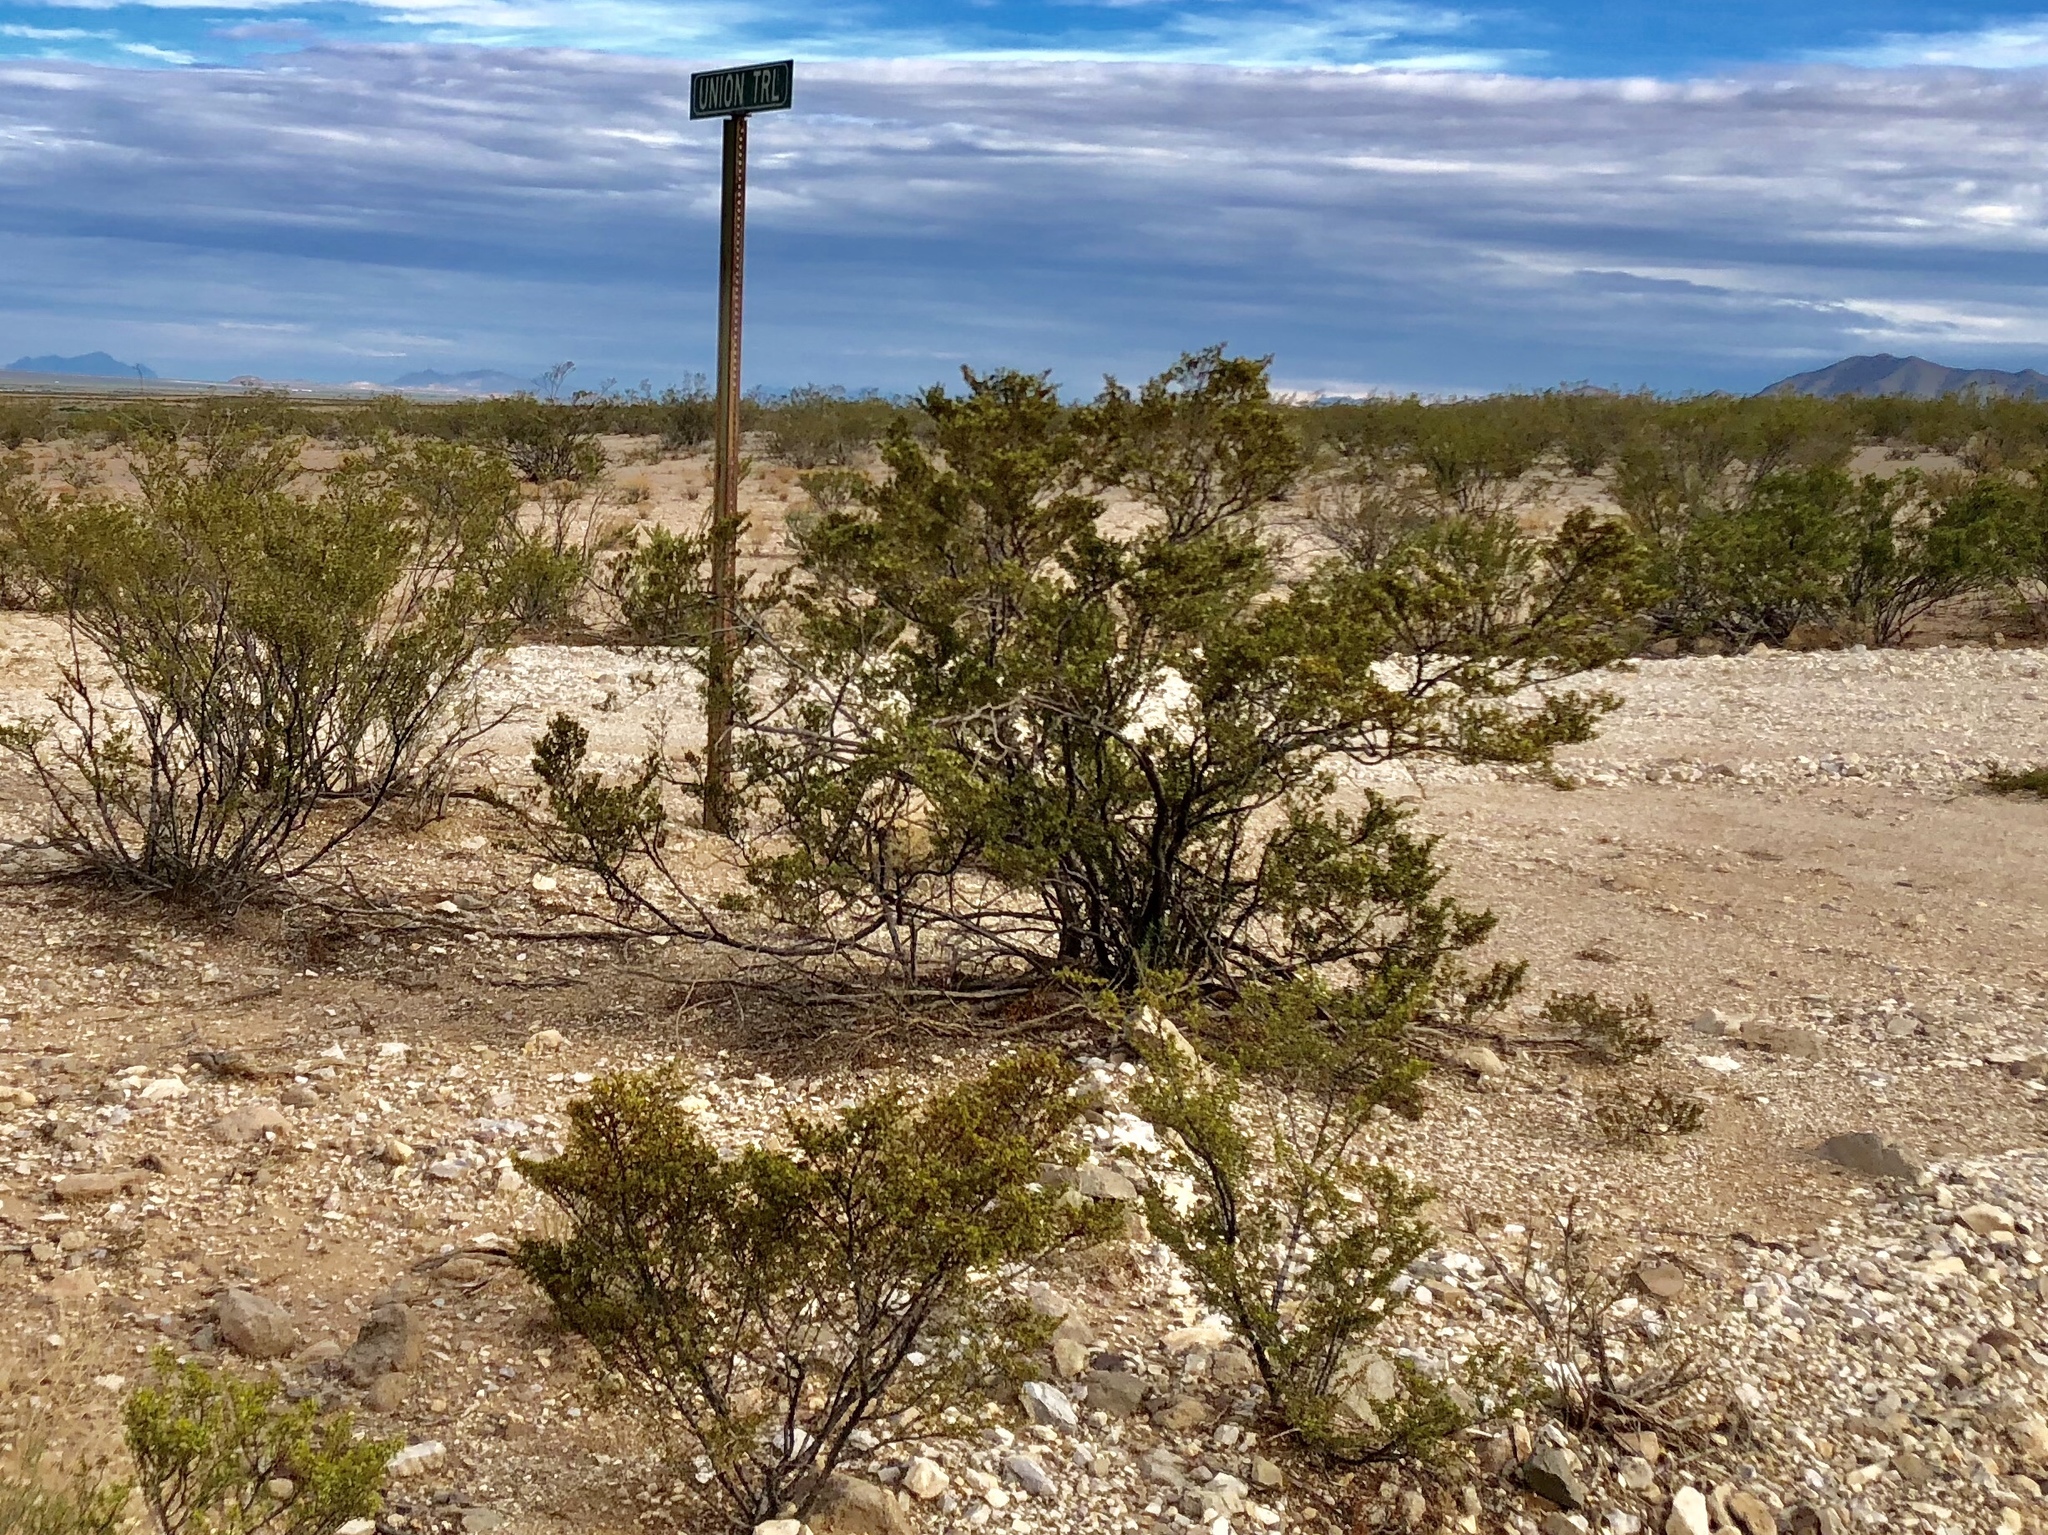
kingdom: Plantae
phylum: Tracheophyta
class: Magnoliopsida
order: Zygophyllales
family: Zygophyllaceae
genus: Larrea
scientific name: Larrea tridentata
